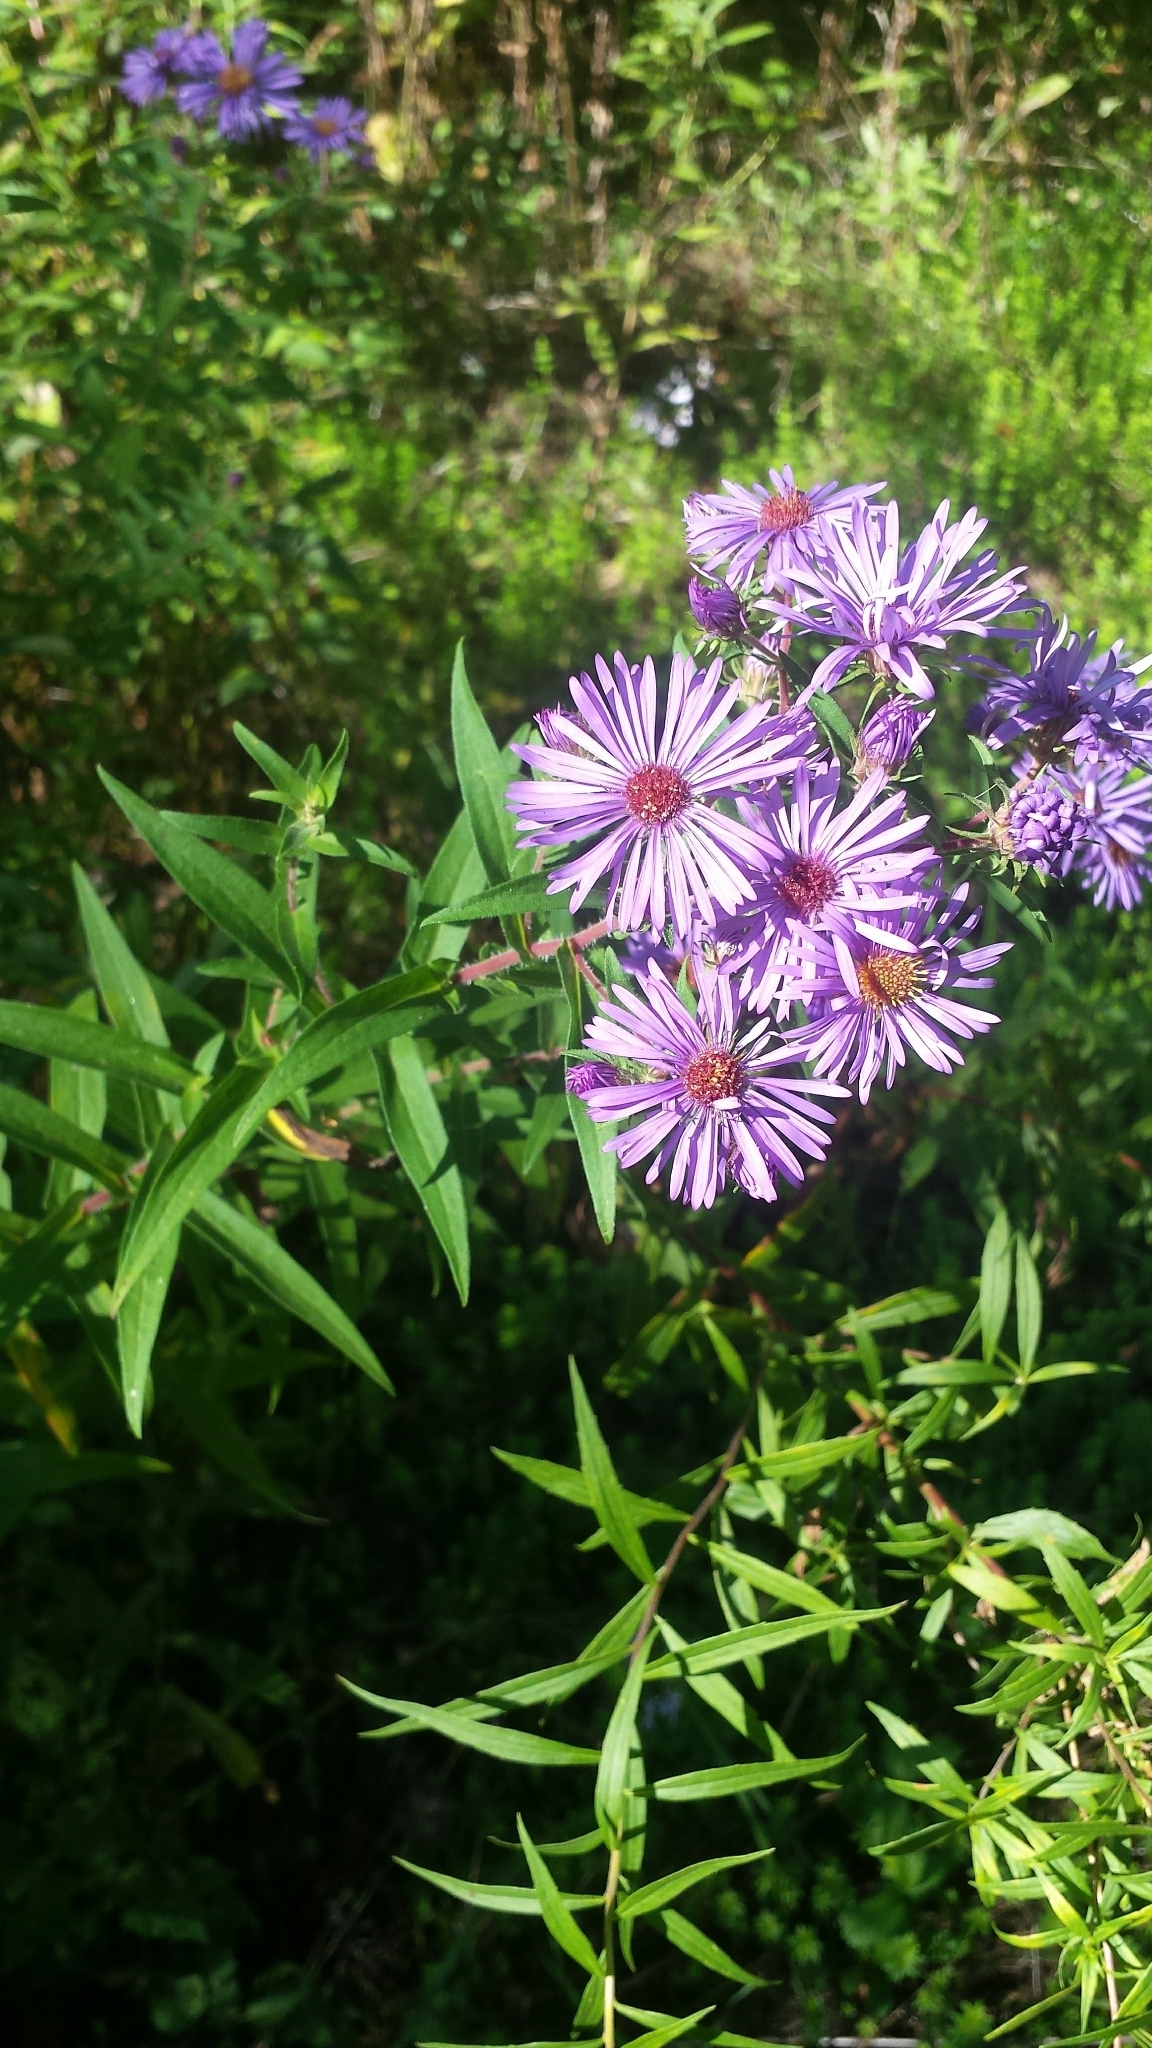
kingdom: Plantae
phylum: Tracheophyta
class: Magnoliopsida
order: Asterales
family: Asteraceae
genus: Symphyotrichum
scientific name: Symphyotrichum novae-angliae
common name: Michaelmas daisy
